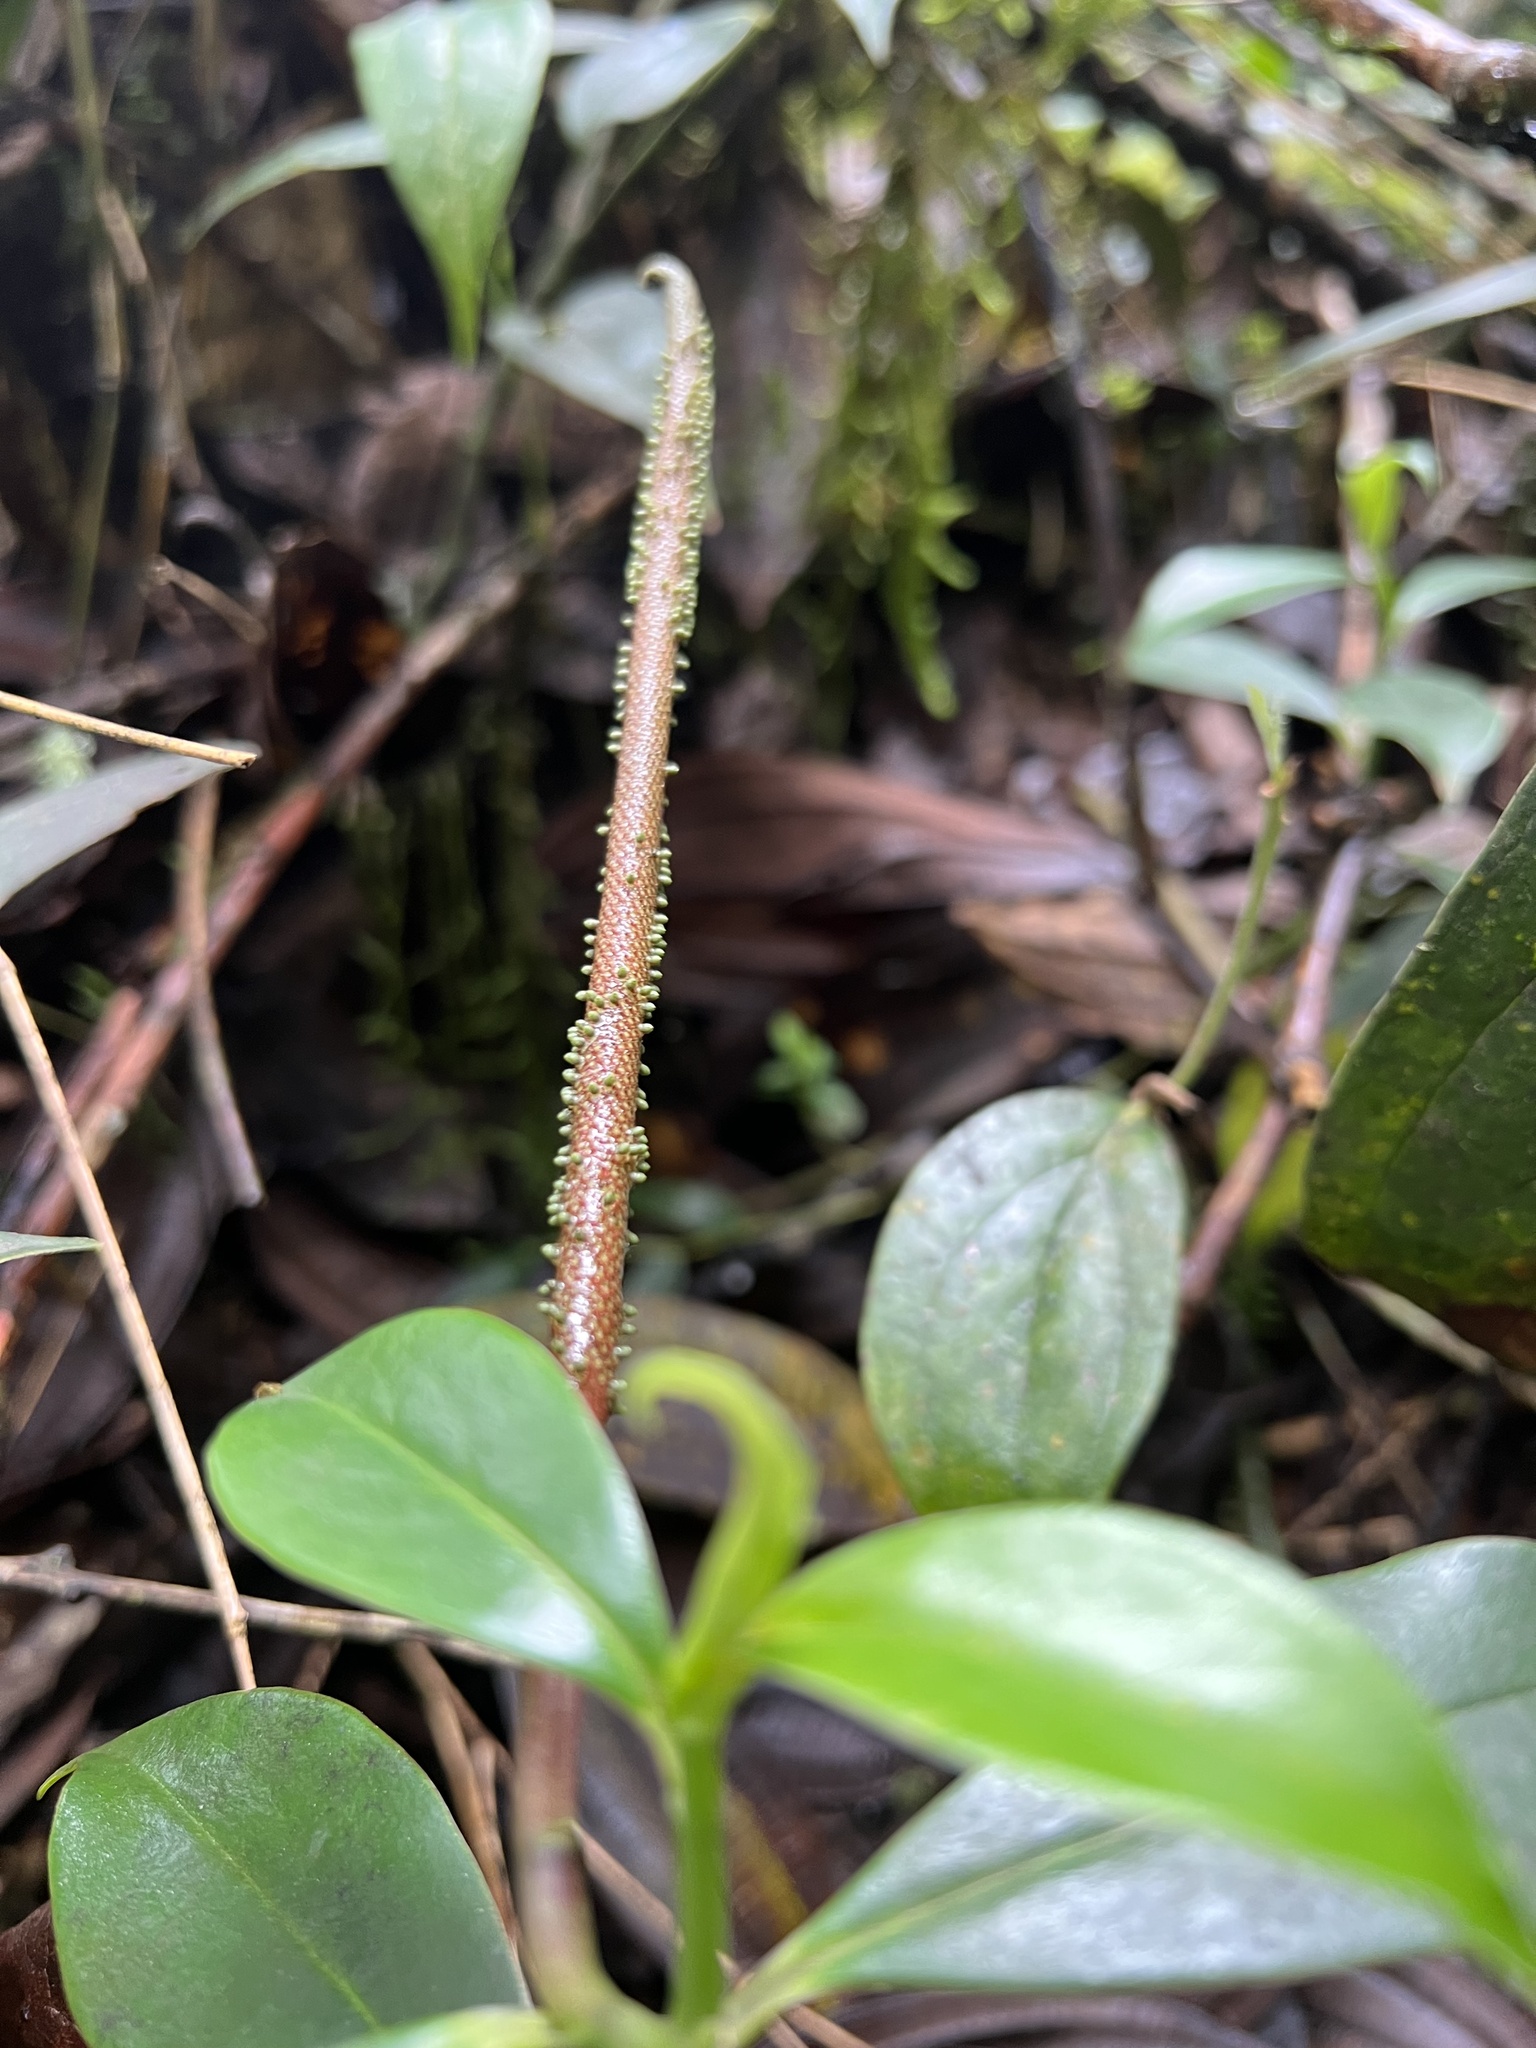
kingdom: Plantae
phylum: Tracheophyta
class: Magnoliopsida
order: Piperales
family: Piperaceae
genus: Peperomia
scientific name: Peperomia acuminata
